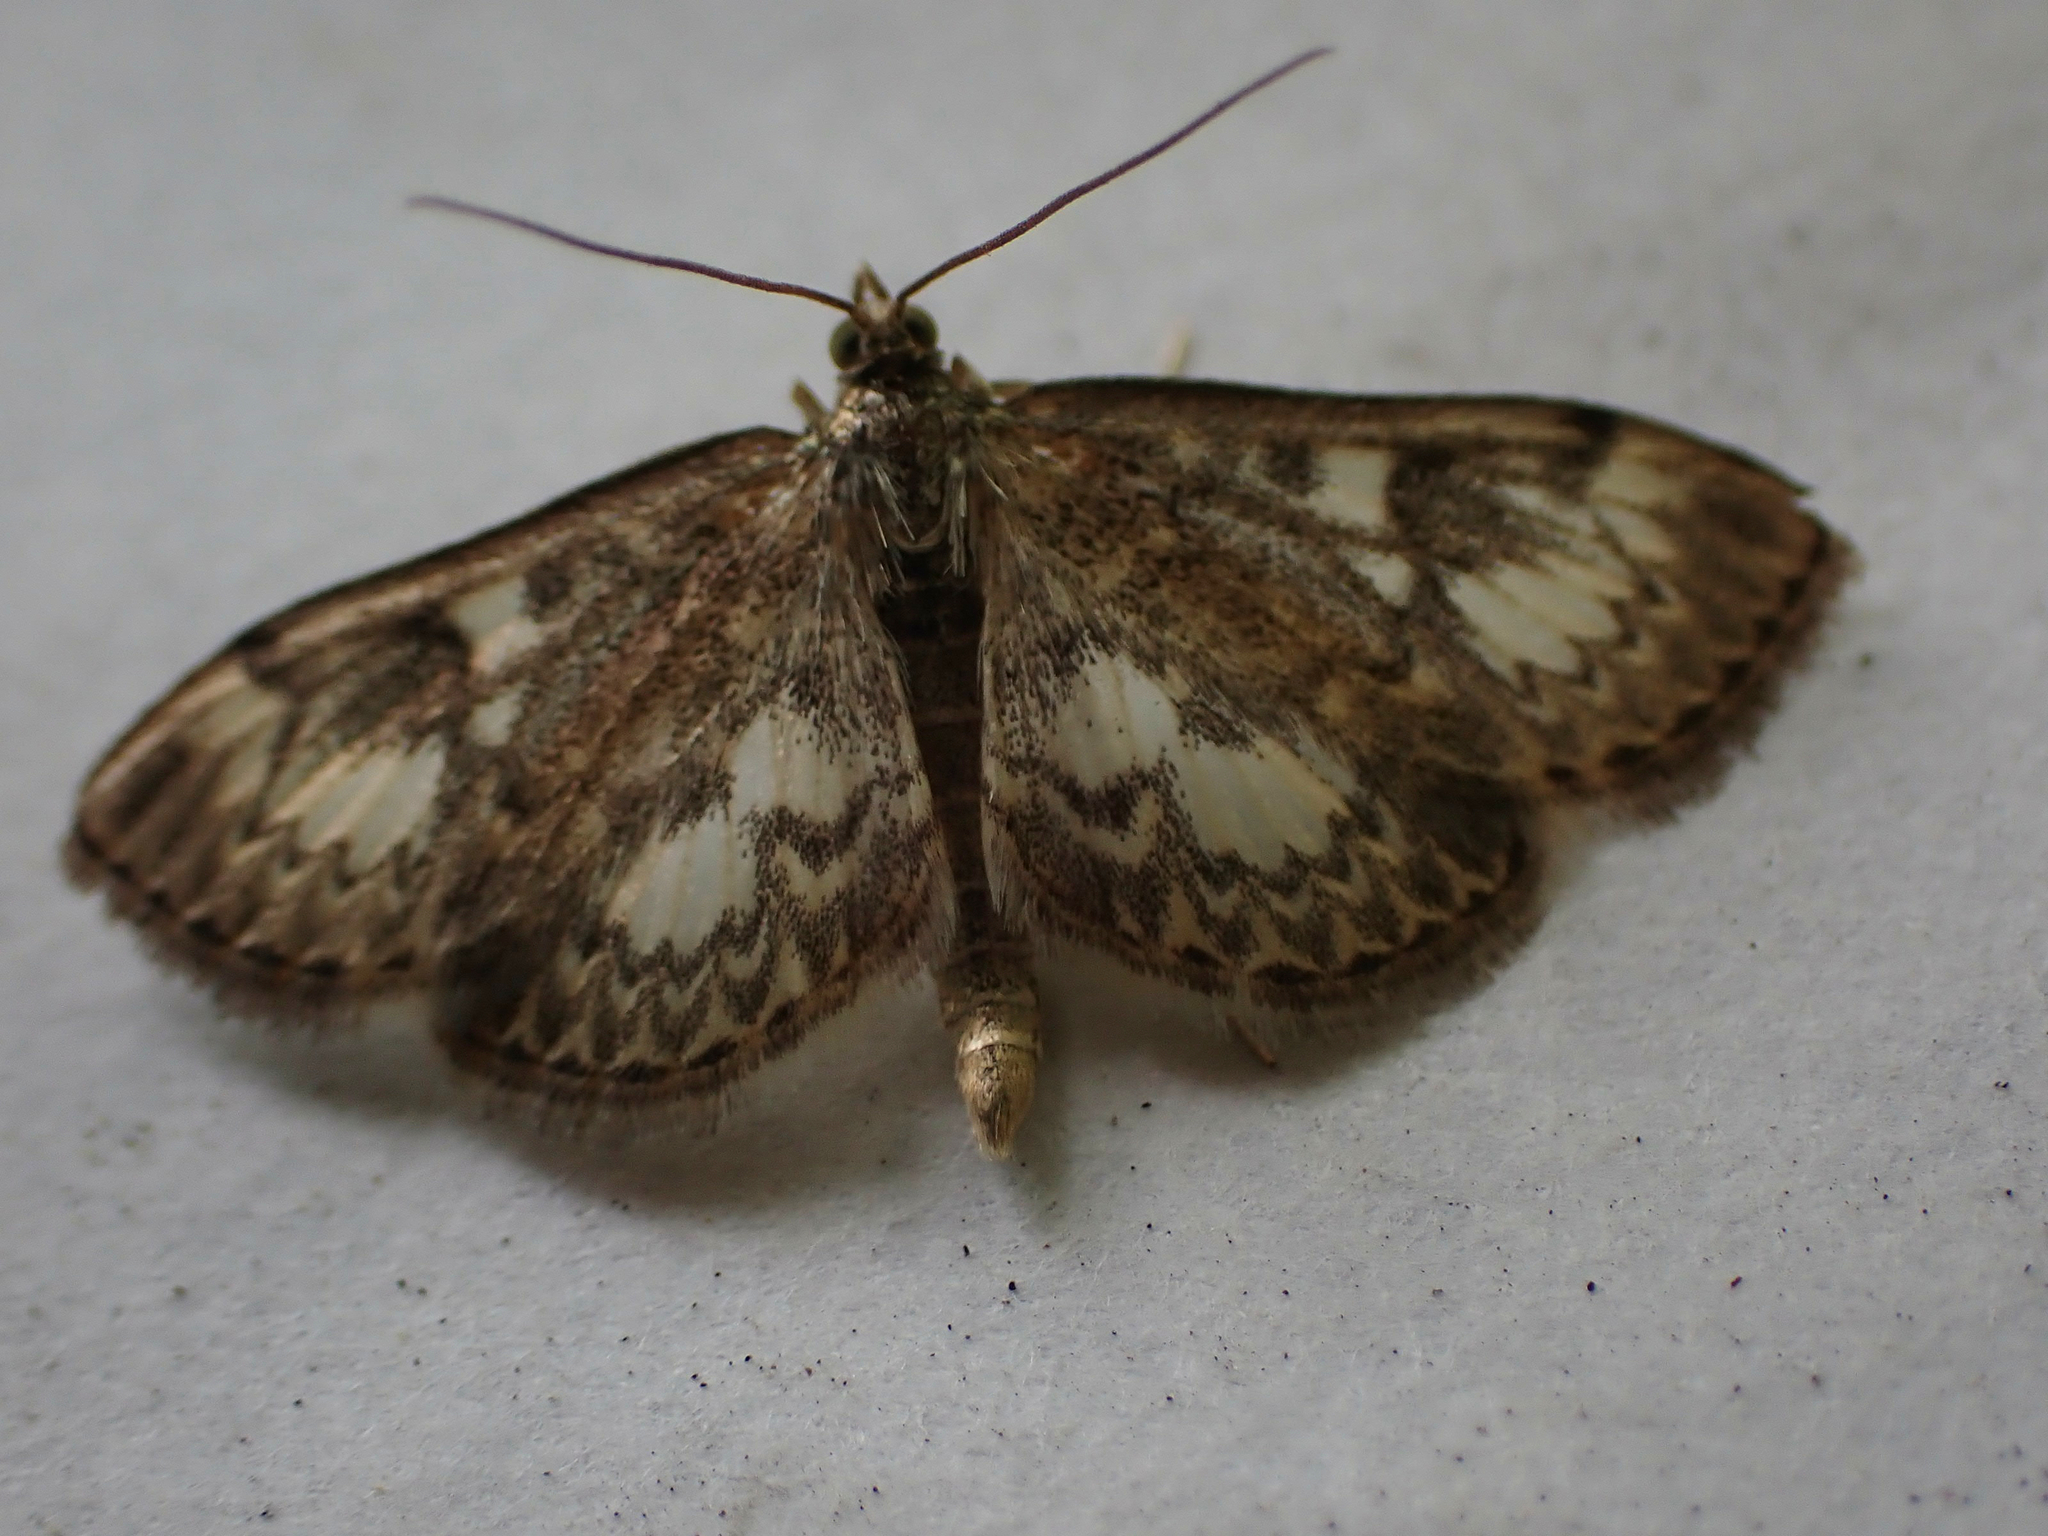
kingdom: Animalia
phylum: Arthropoda
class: Insecta
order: Lepidoptera
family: Crambidae
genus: Anania
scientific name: Anania
